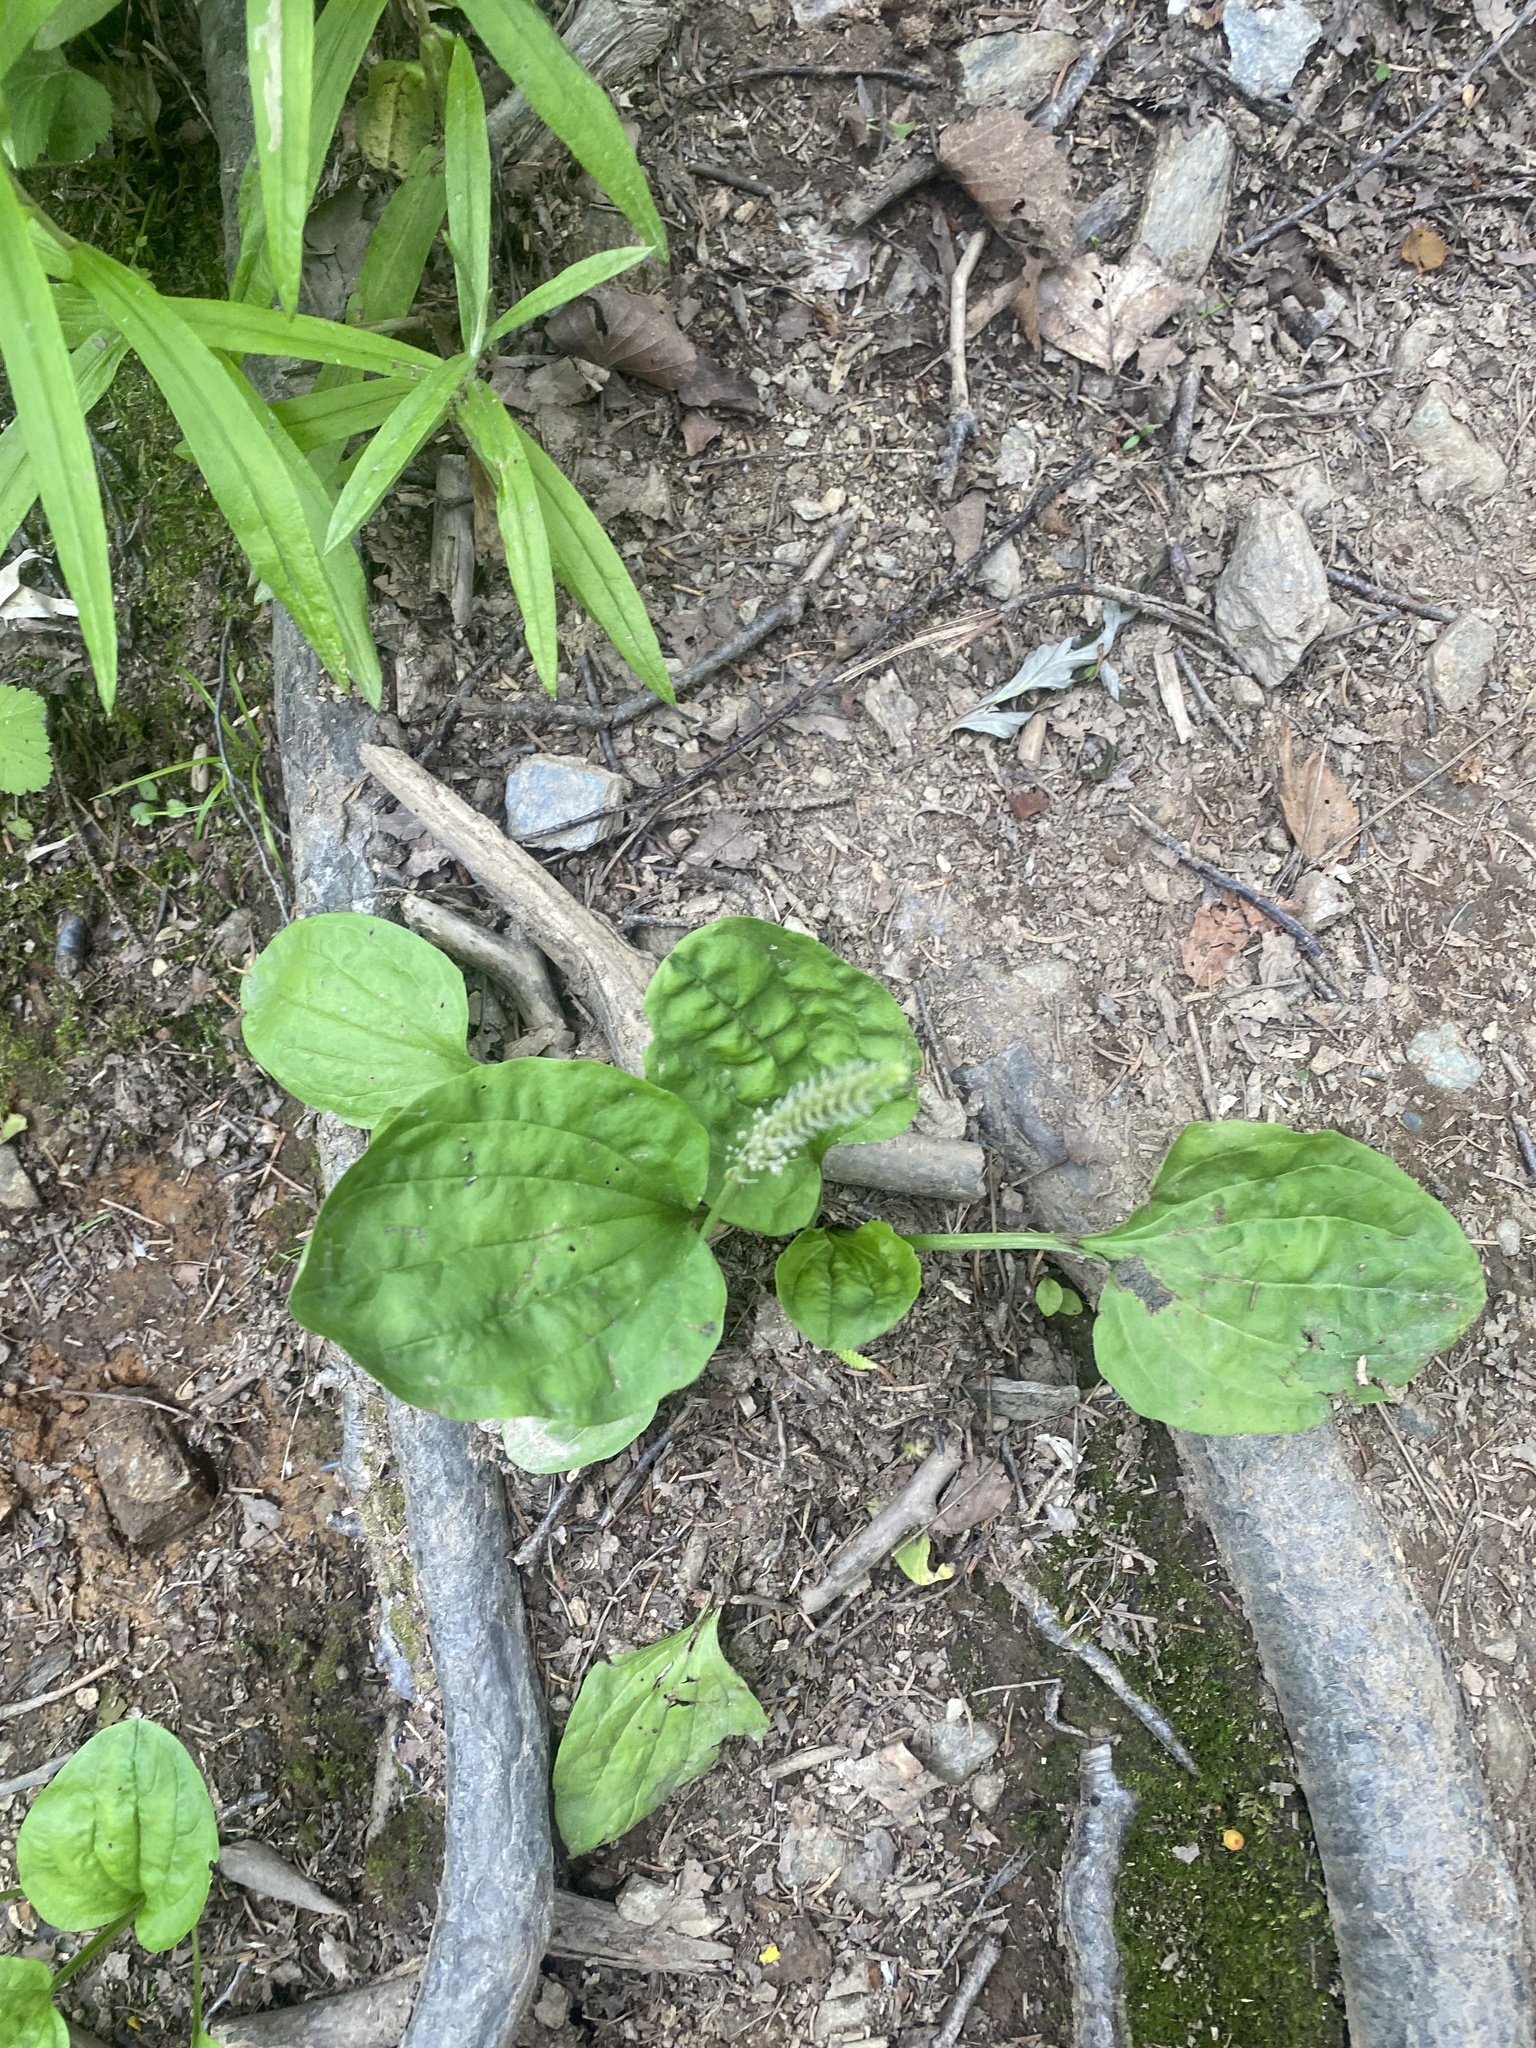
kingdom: Plantae
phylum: Tracheophyta
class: Magnoliopsida
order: Lamiales
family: Plantaginaceae
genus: Plantago
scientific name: Plantago major
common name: Common plantain
